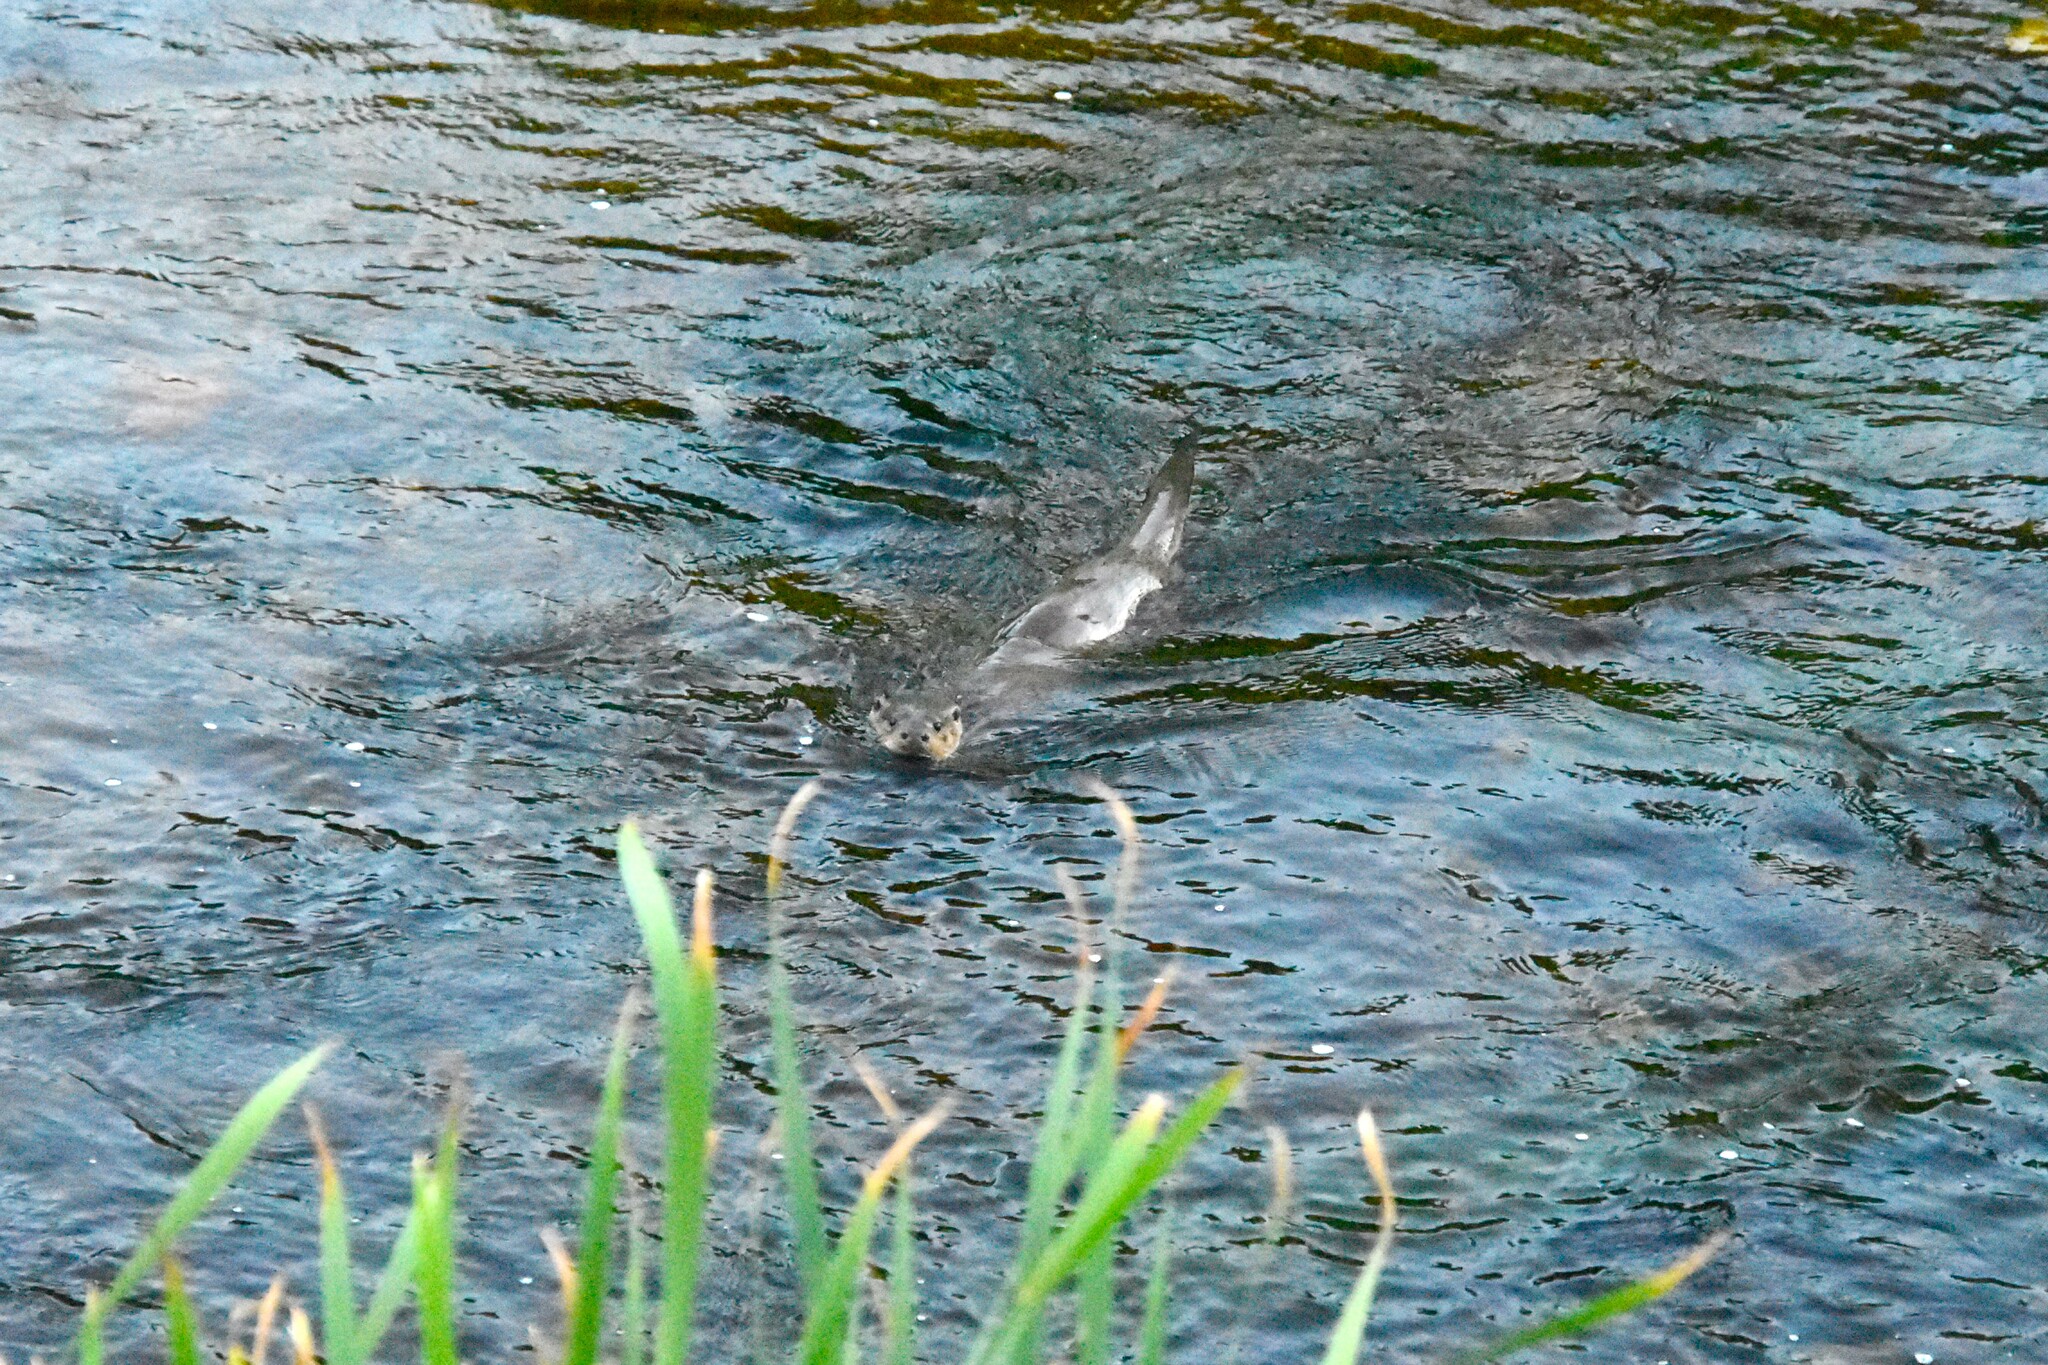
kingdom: Animalia
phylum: Chordata
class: Mammalia
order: Carnivora
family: Mustelidae
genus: Lutra
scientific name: Lutra lutra
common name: European otter
